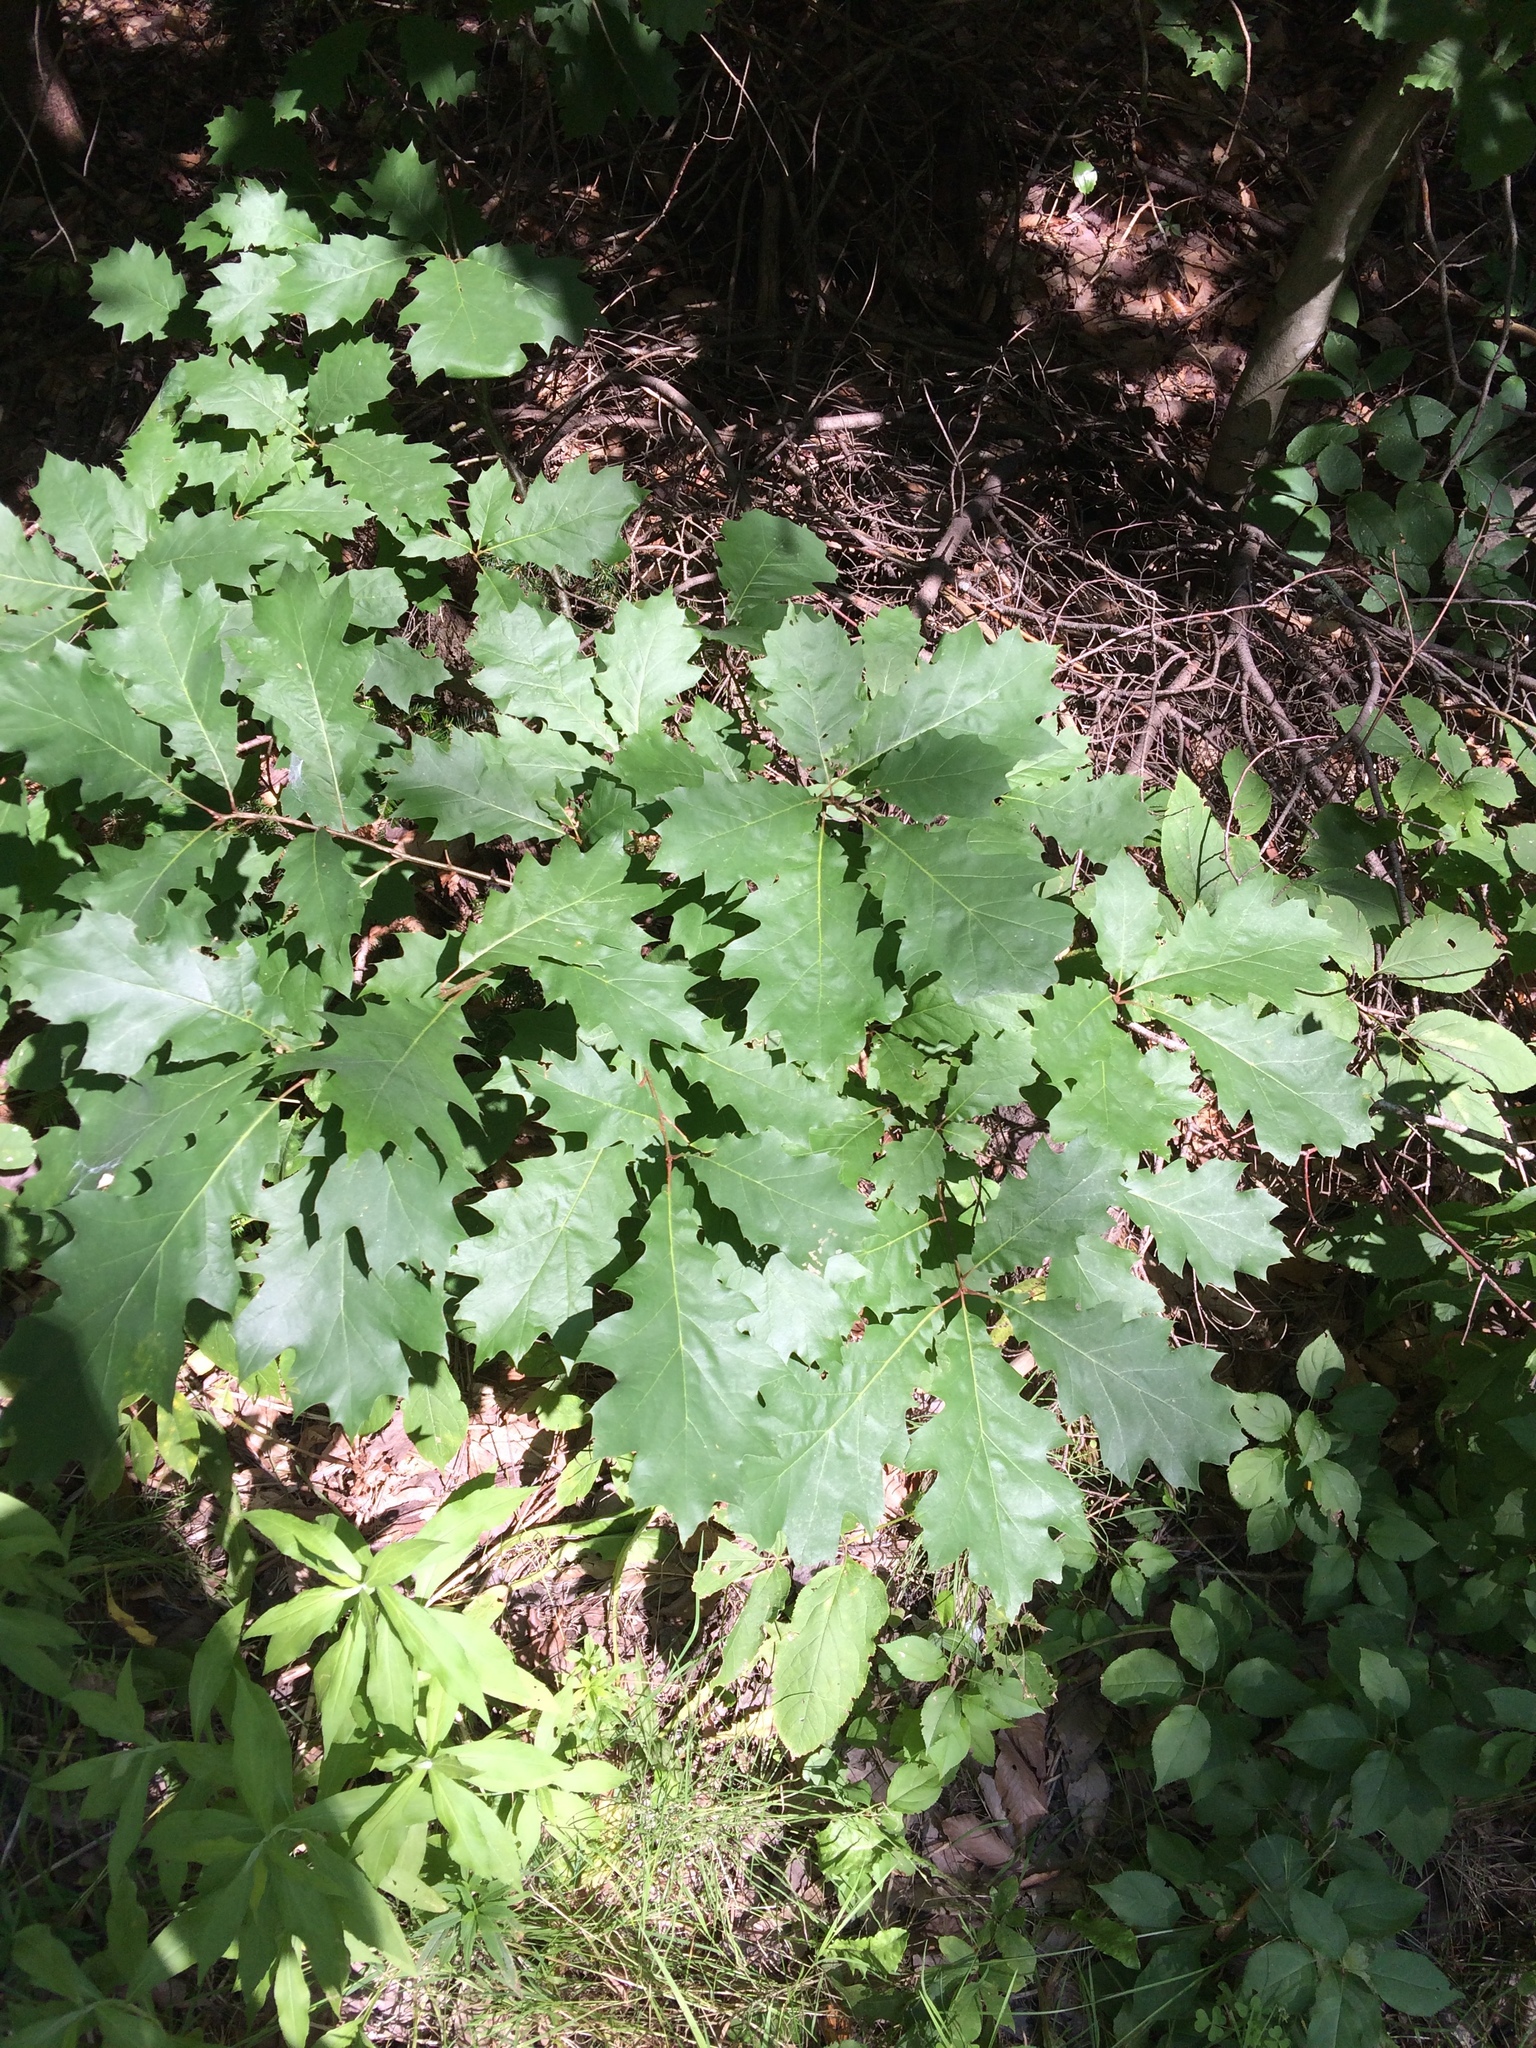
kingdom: Plantae
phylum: Tracheophyta
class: Magnoliopsida
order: Fagales
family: Fagaceae
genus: Quercus
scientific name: Quercus rubra
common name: Red oak
